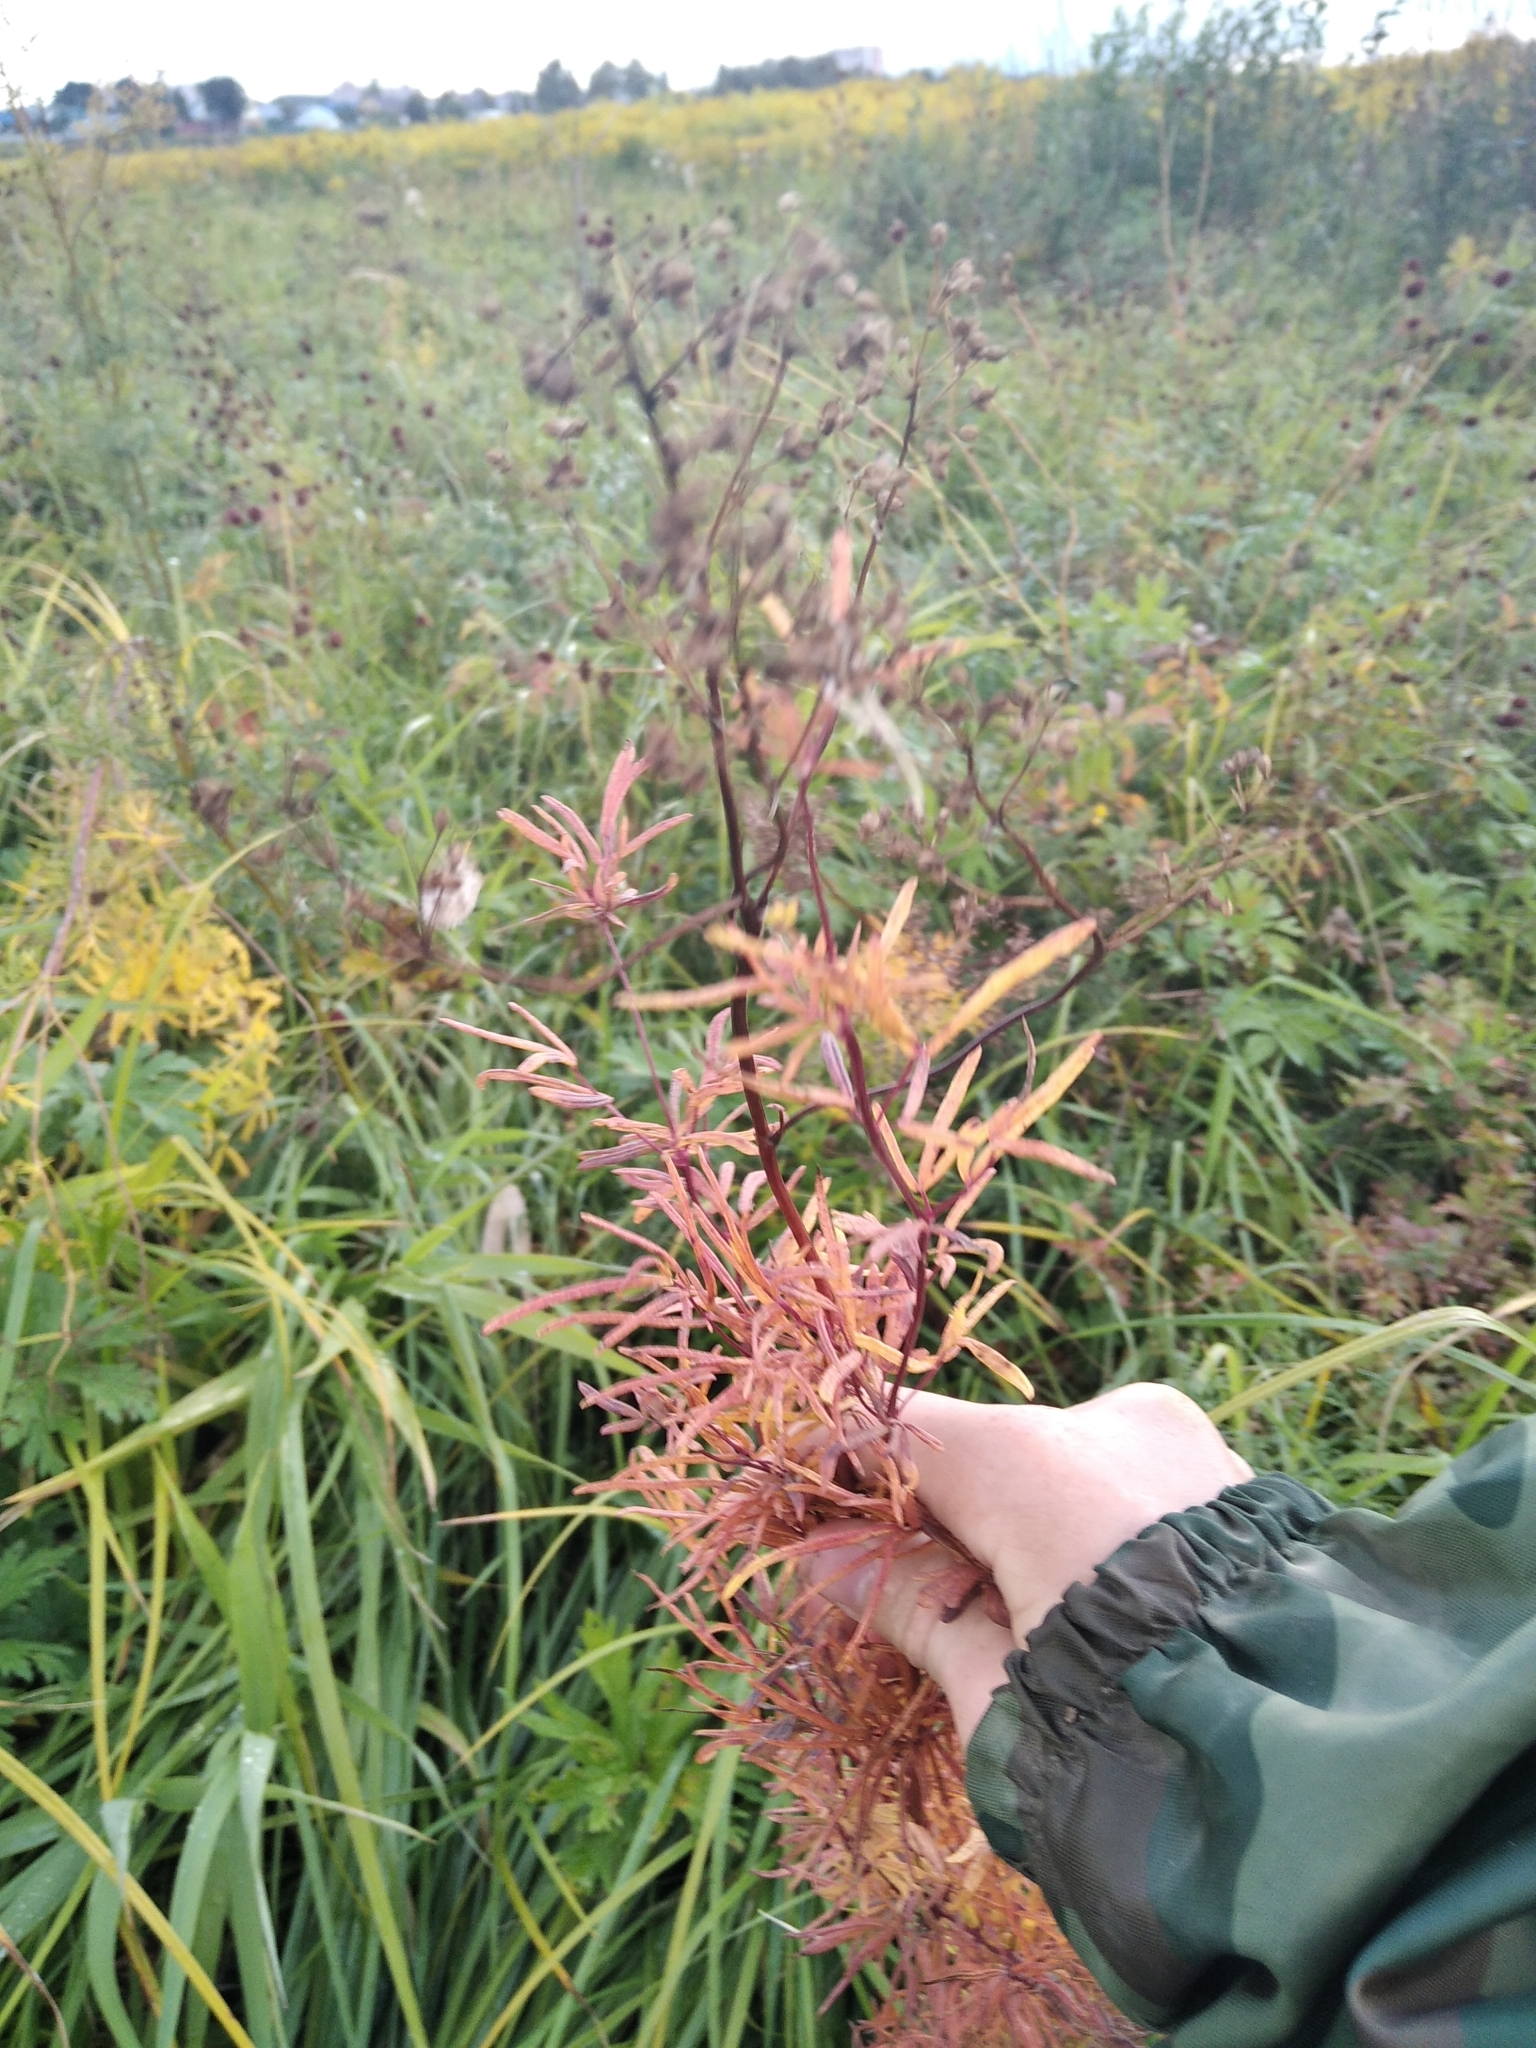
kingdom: Plantae
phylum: Tracheophyta
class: Magnoliopsida
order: Ranunculales
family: Ranunculaceae
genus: Thalictrum
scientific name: Thalictrum lucidum
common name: Shining meadow-rue
